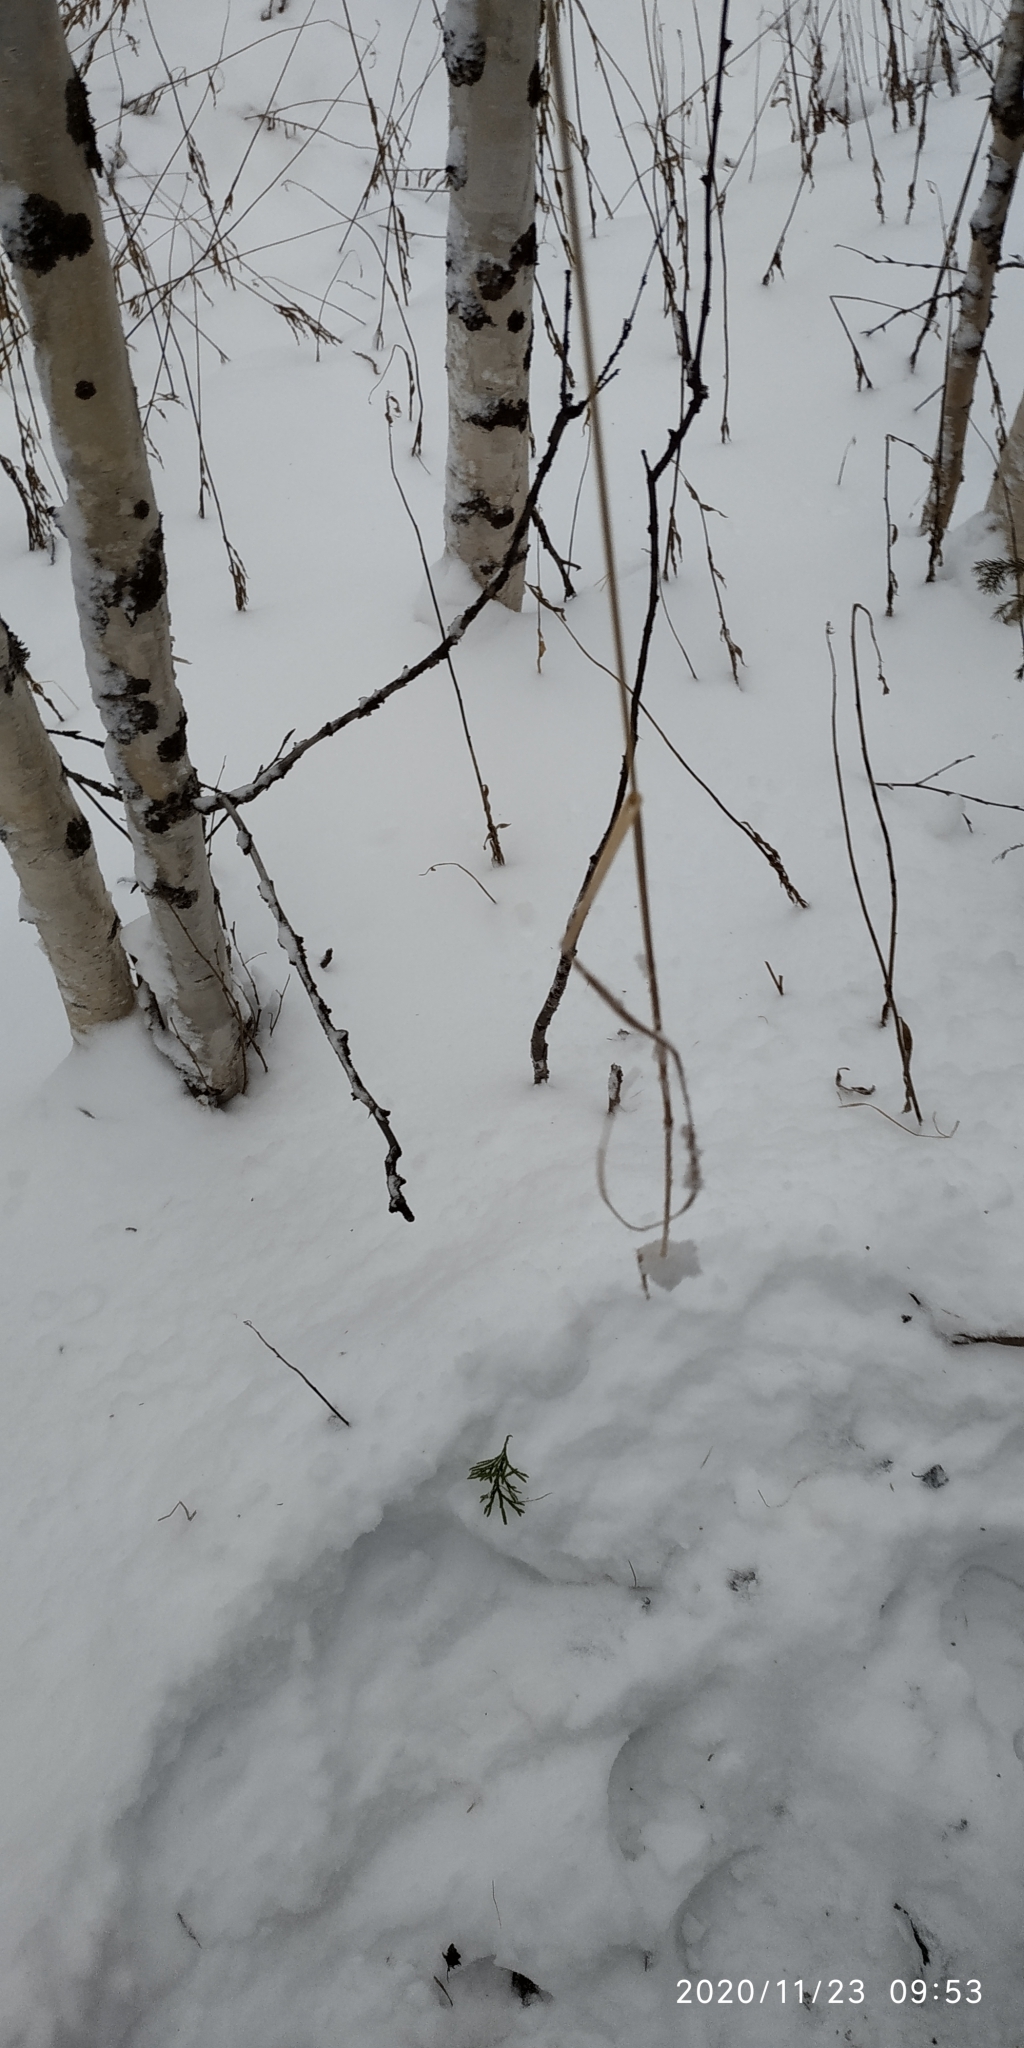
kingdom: Plantae
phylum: Tracheophyta
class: Liliopsida
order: Poales
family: Poaceae
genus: Calamagrostis
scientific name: Calamagrostis purpurea
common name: Scandinavian small-reed
